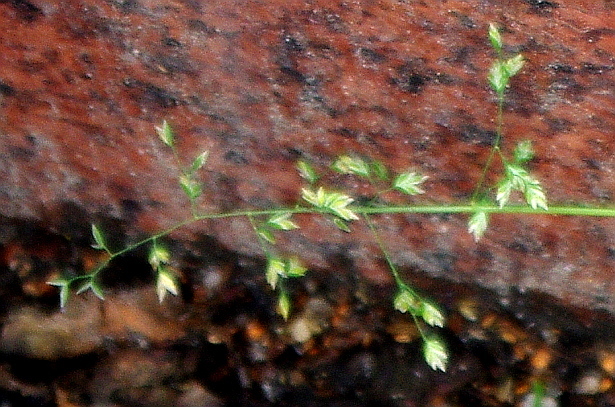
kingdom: Plantae
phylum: Tracheophyta
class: Liliopsida
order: Poales
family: Poaceae
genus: Poa
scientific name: Poa annua
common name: Annual bluegrass
